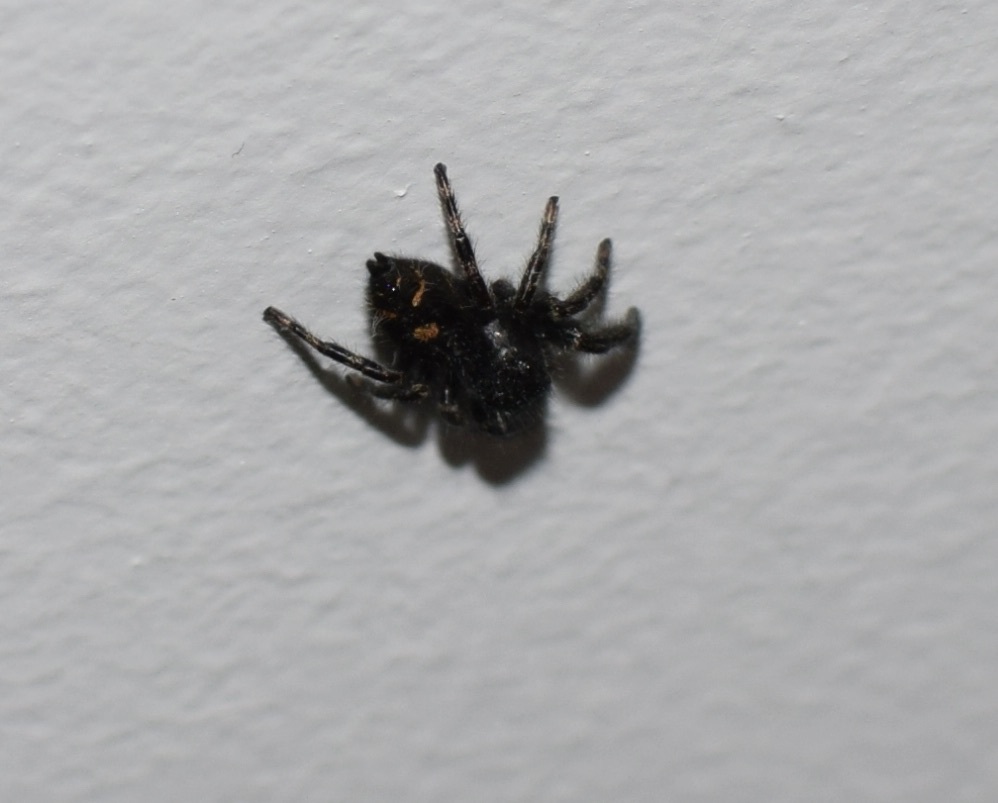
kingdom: Animalia
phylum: Arthropoda
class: Arachnida
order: Araneae
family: Salticidae
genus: Phidippus
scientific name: Phidippus audax
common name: Bold jumper
